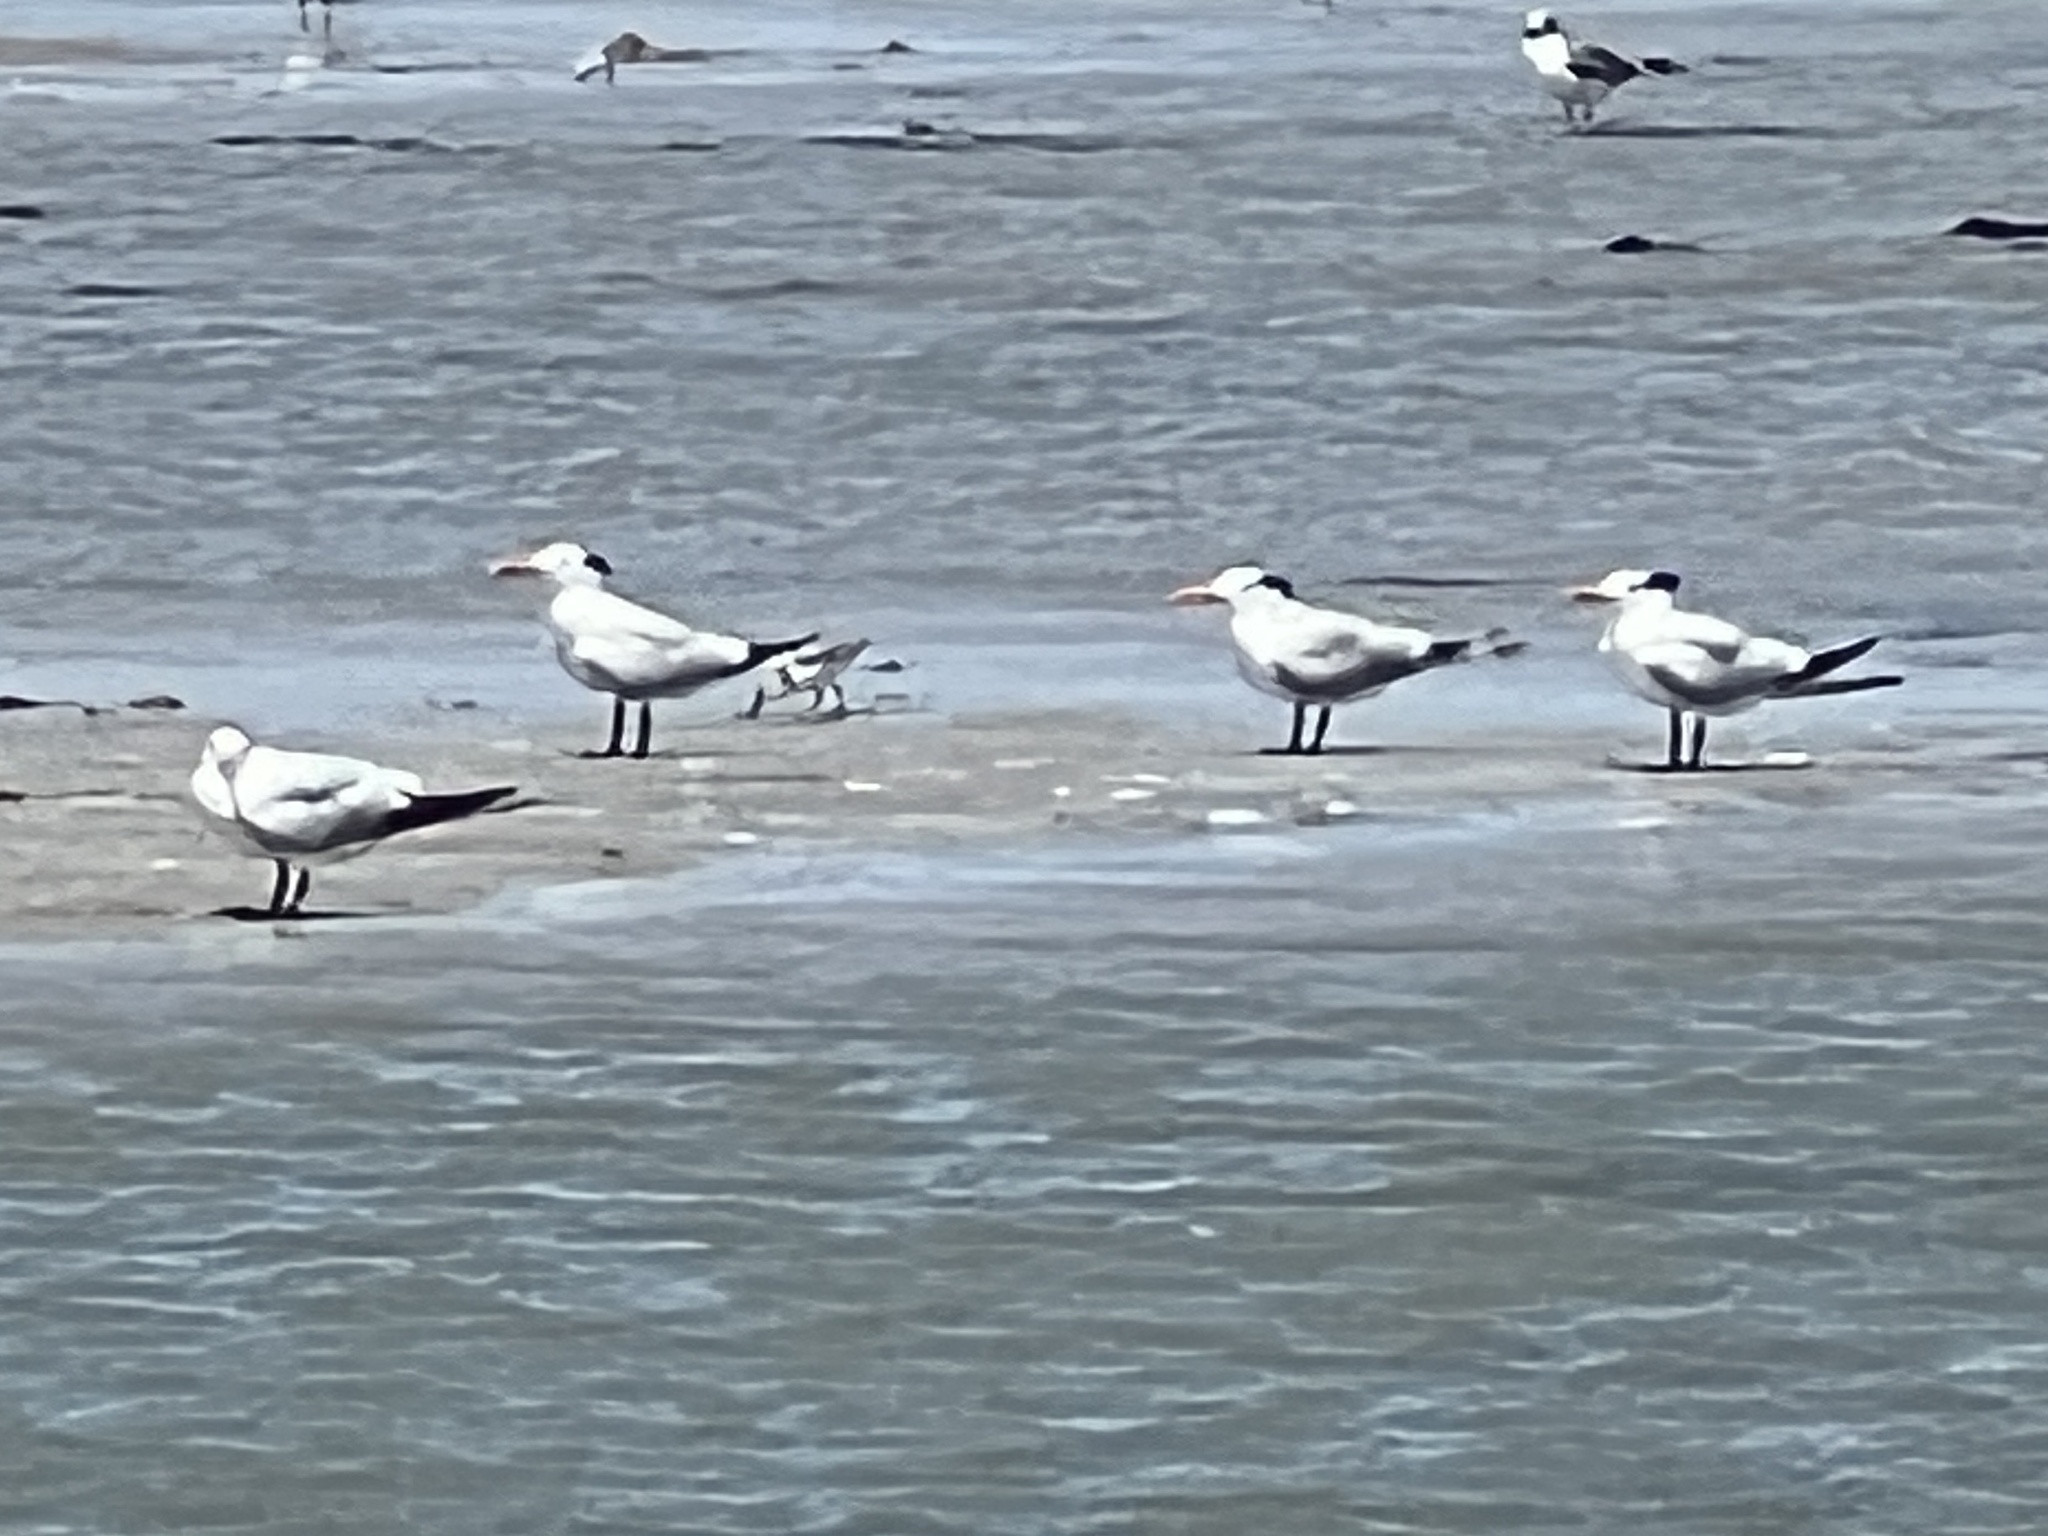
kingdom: Animalia
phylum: Chordata
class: Aves
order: Charadriiformes
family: Laridae
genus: Thalasseus
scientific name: Thalasseus maximus
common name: Royal tern
